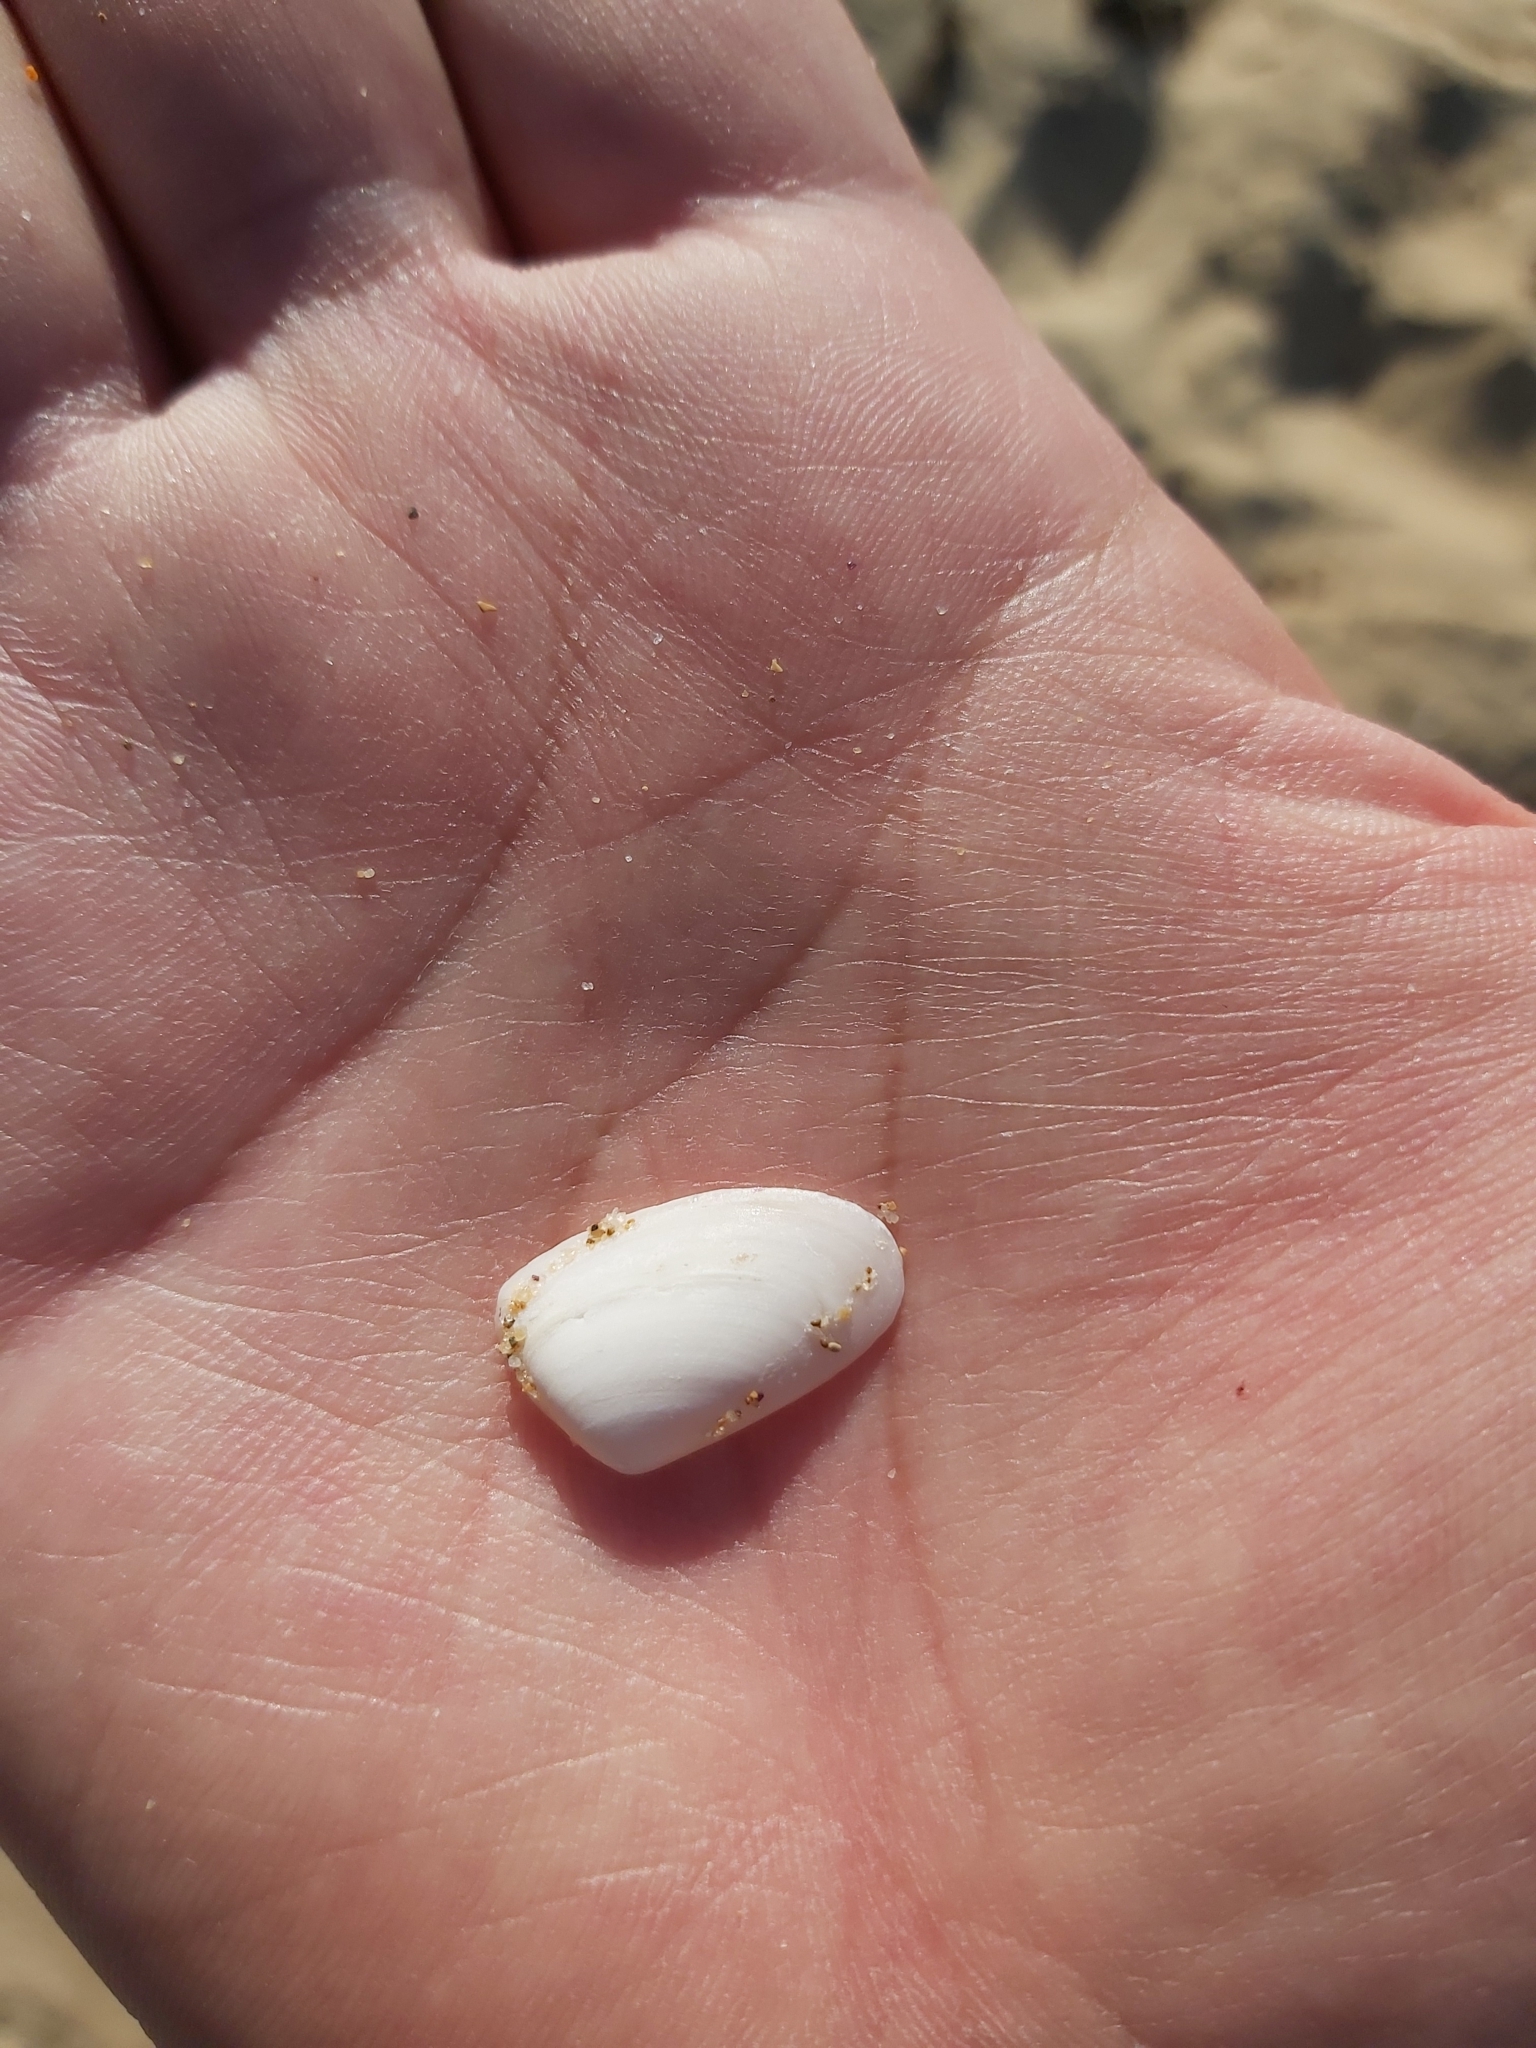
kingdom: Animalia
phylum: Mollusca
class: Bivalvia
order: Venerida
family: Mesodesmatidae
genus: Paphies
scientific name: Paphies angusta
